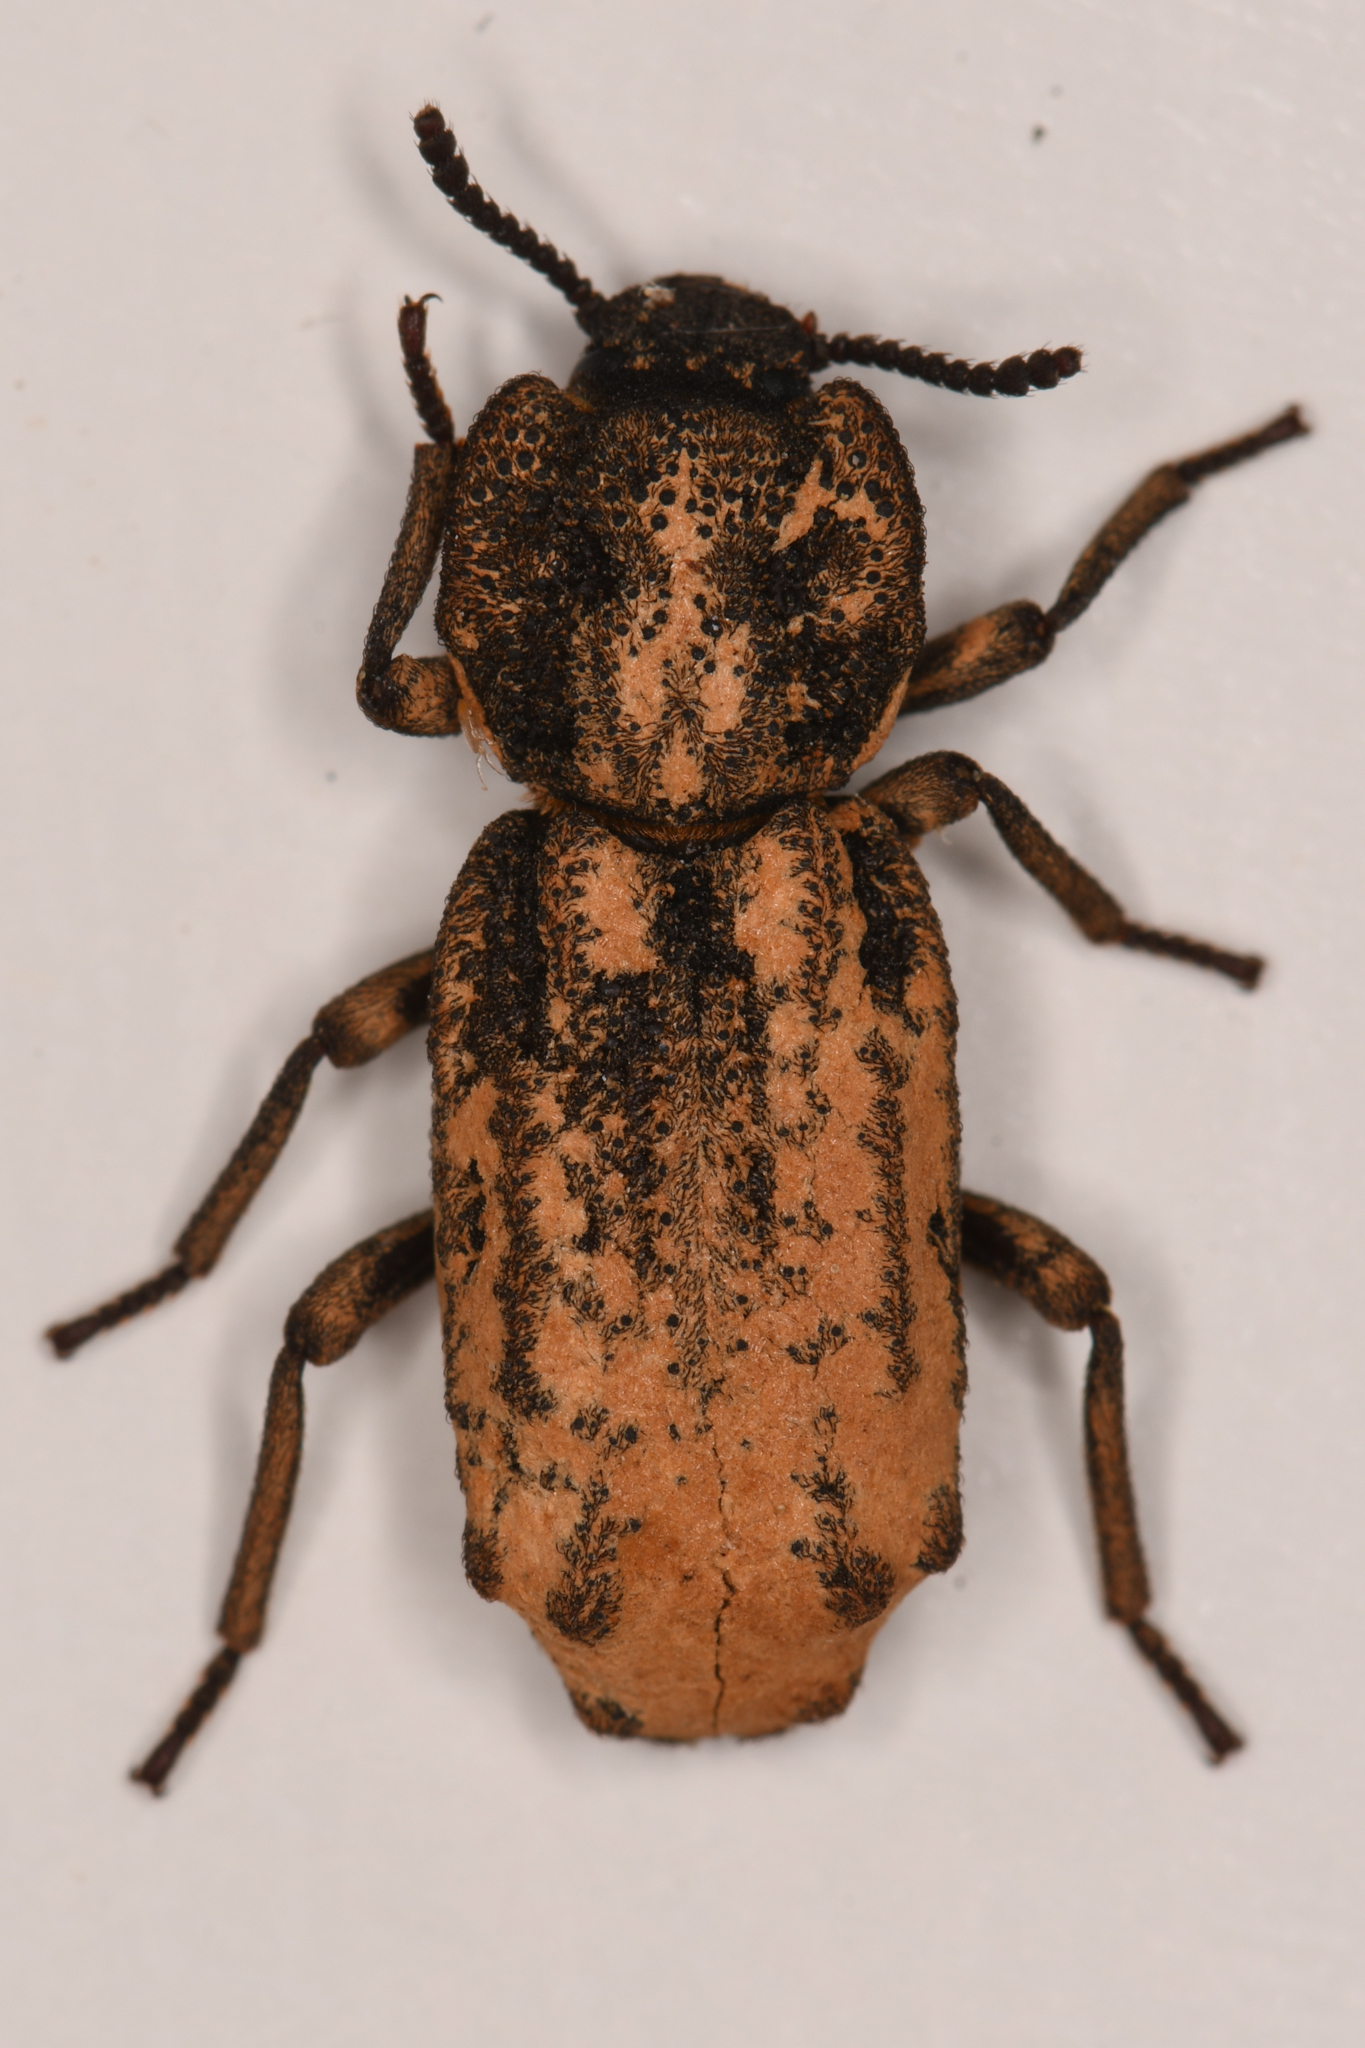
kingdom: Animalia
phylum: Arthropoda
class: Insecta
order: Coleoptera
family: Zopheridae
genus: Phellopsis
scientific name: Phellopsis porcata
